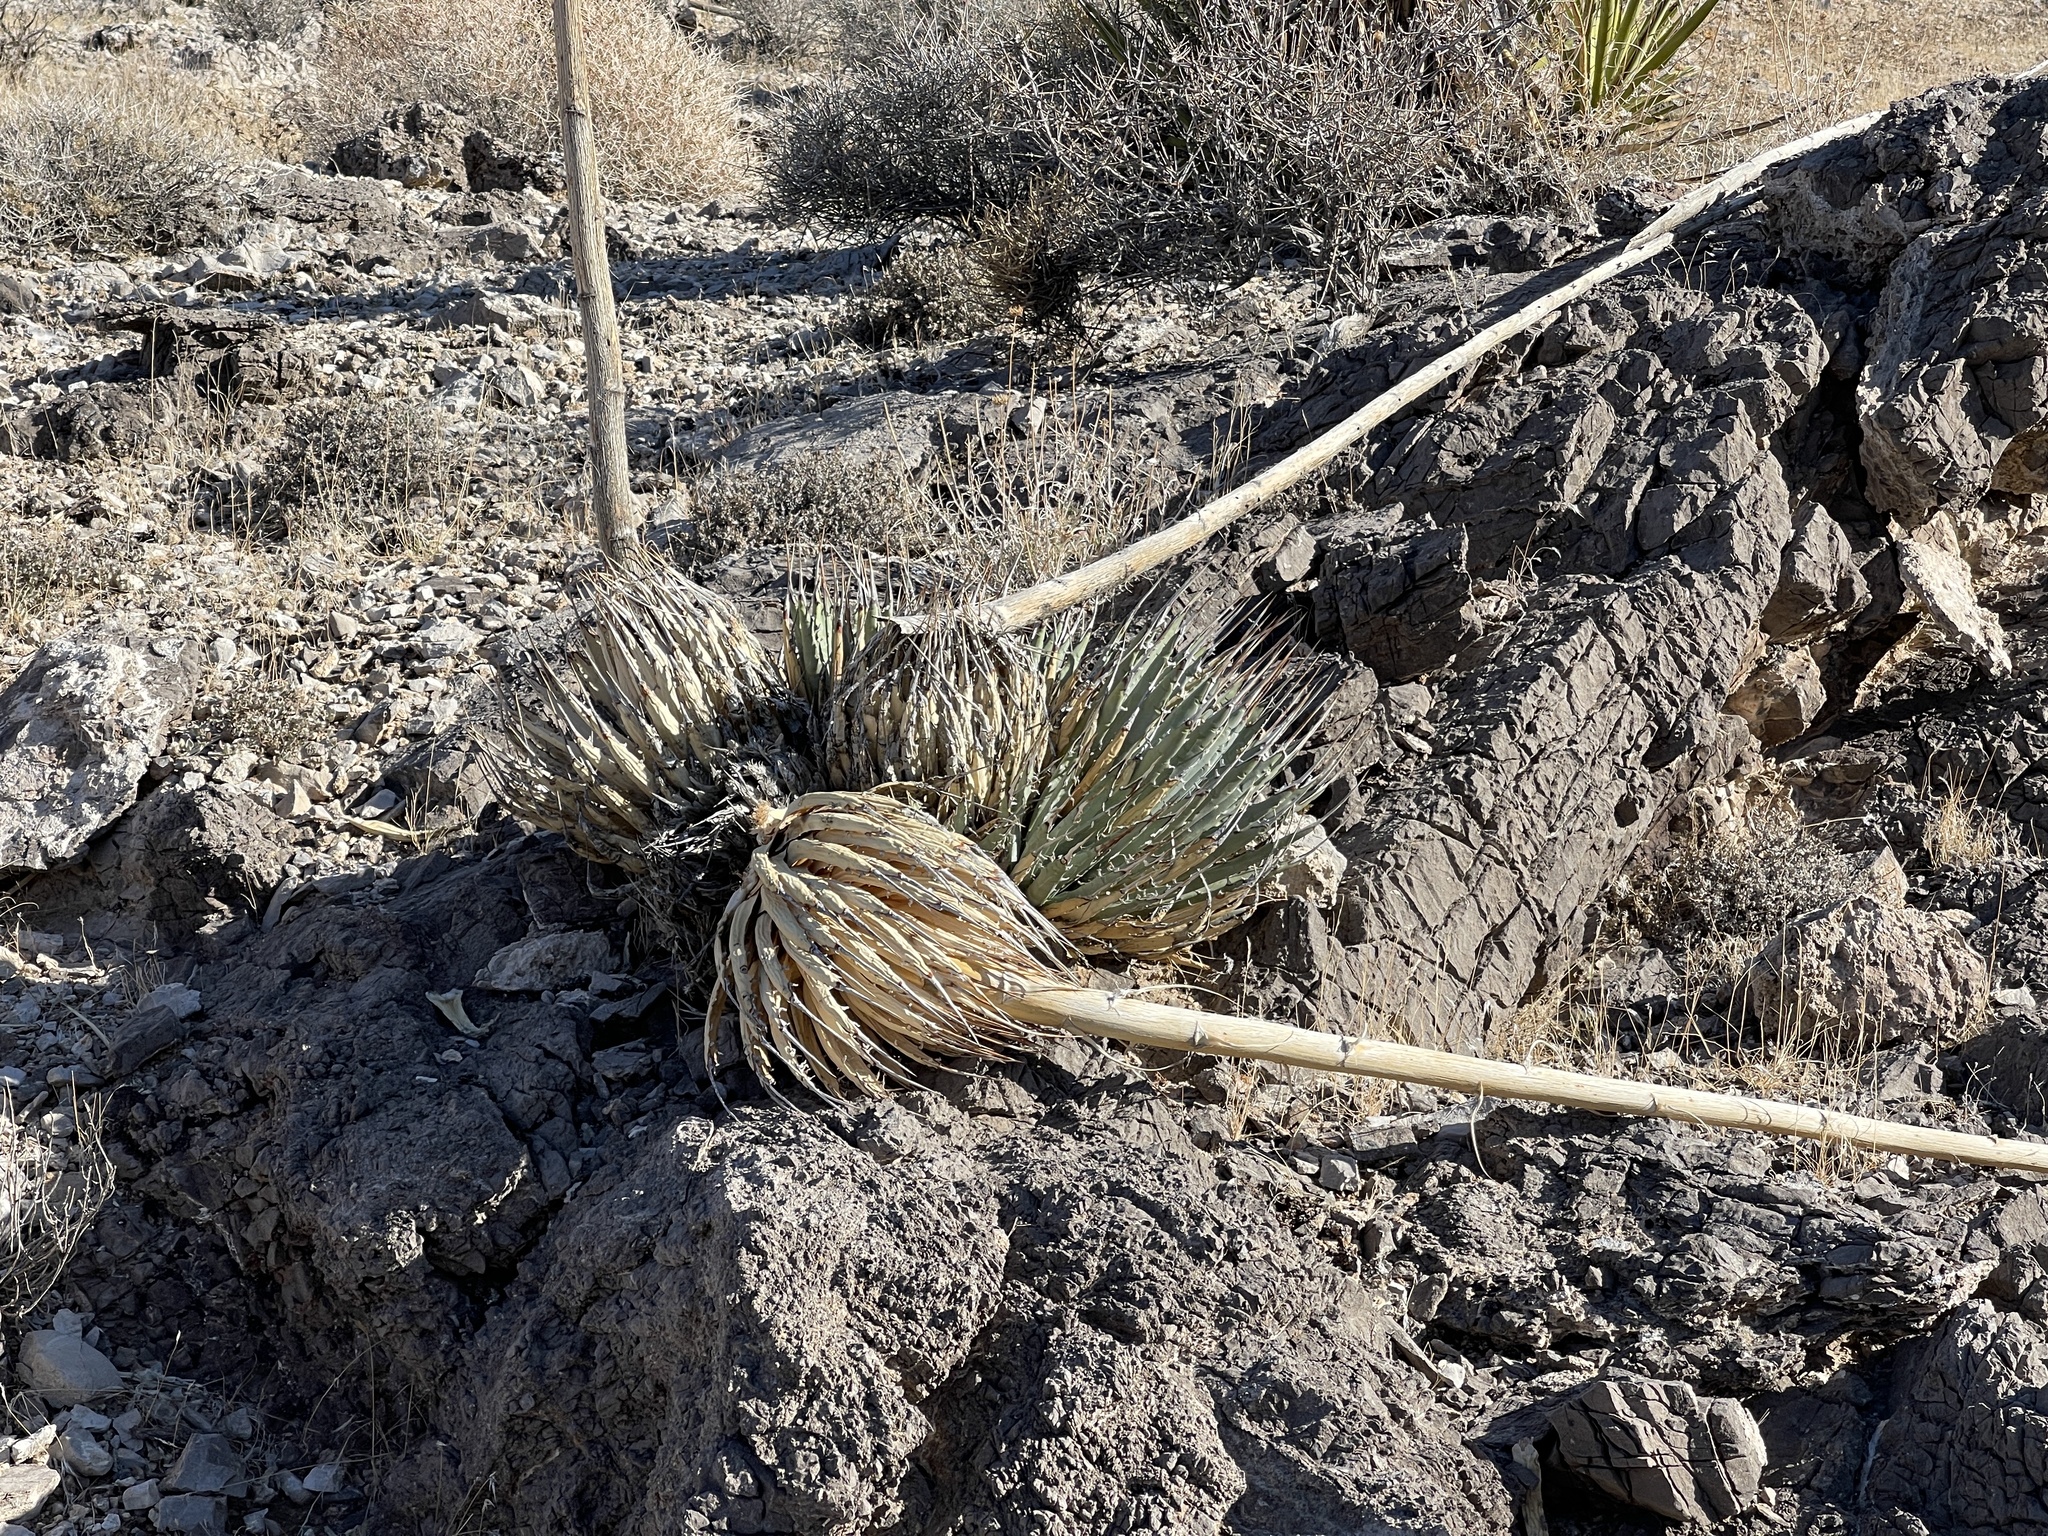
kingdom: Plantae
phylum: Tracheophyta
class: Liliopsida
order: Asparagales
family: Asparagaceae
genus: Agave
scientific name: Agave utahensis
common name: Utah agave
